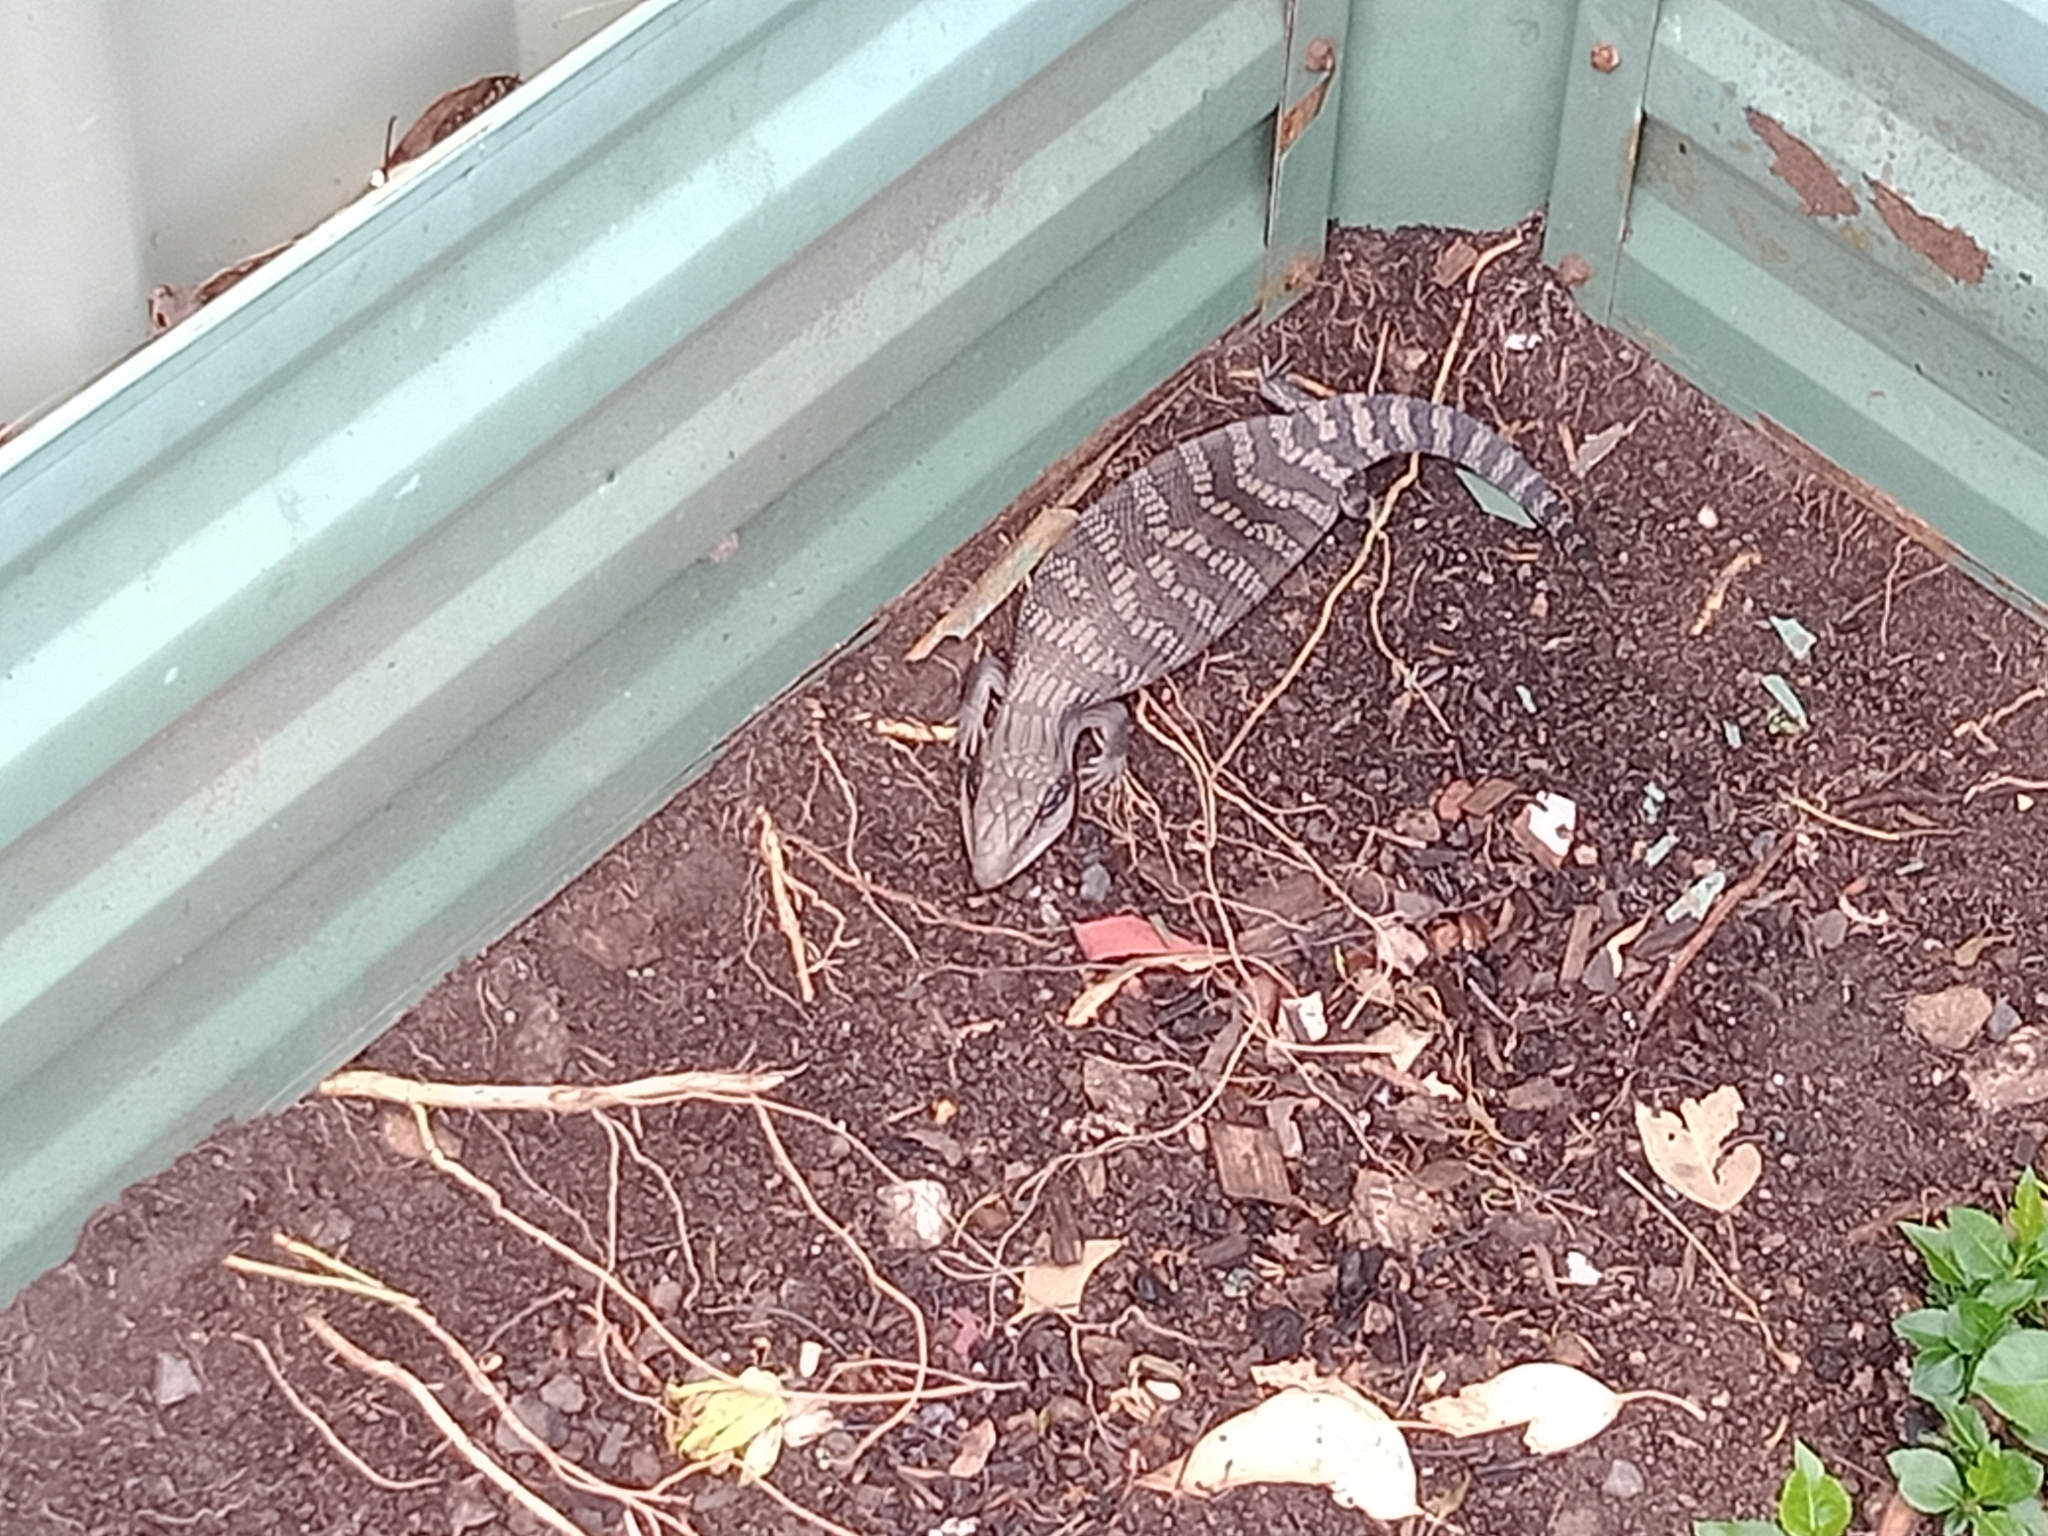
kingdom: Animalia
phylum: Chordata
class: Squamata
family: Scincidae
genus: Tiliqua
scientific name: Tiliqua scincoides
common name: Common bluetongue
